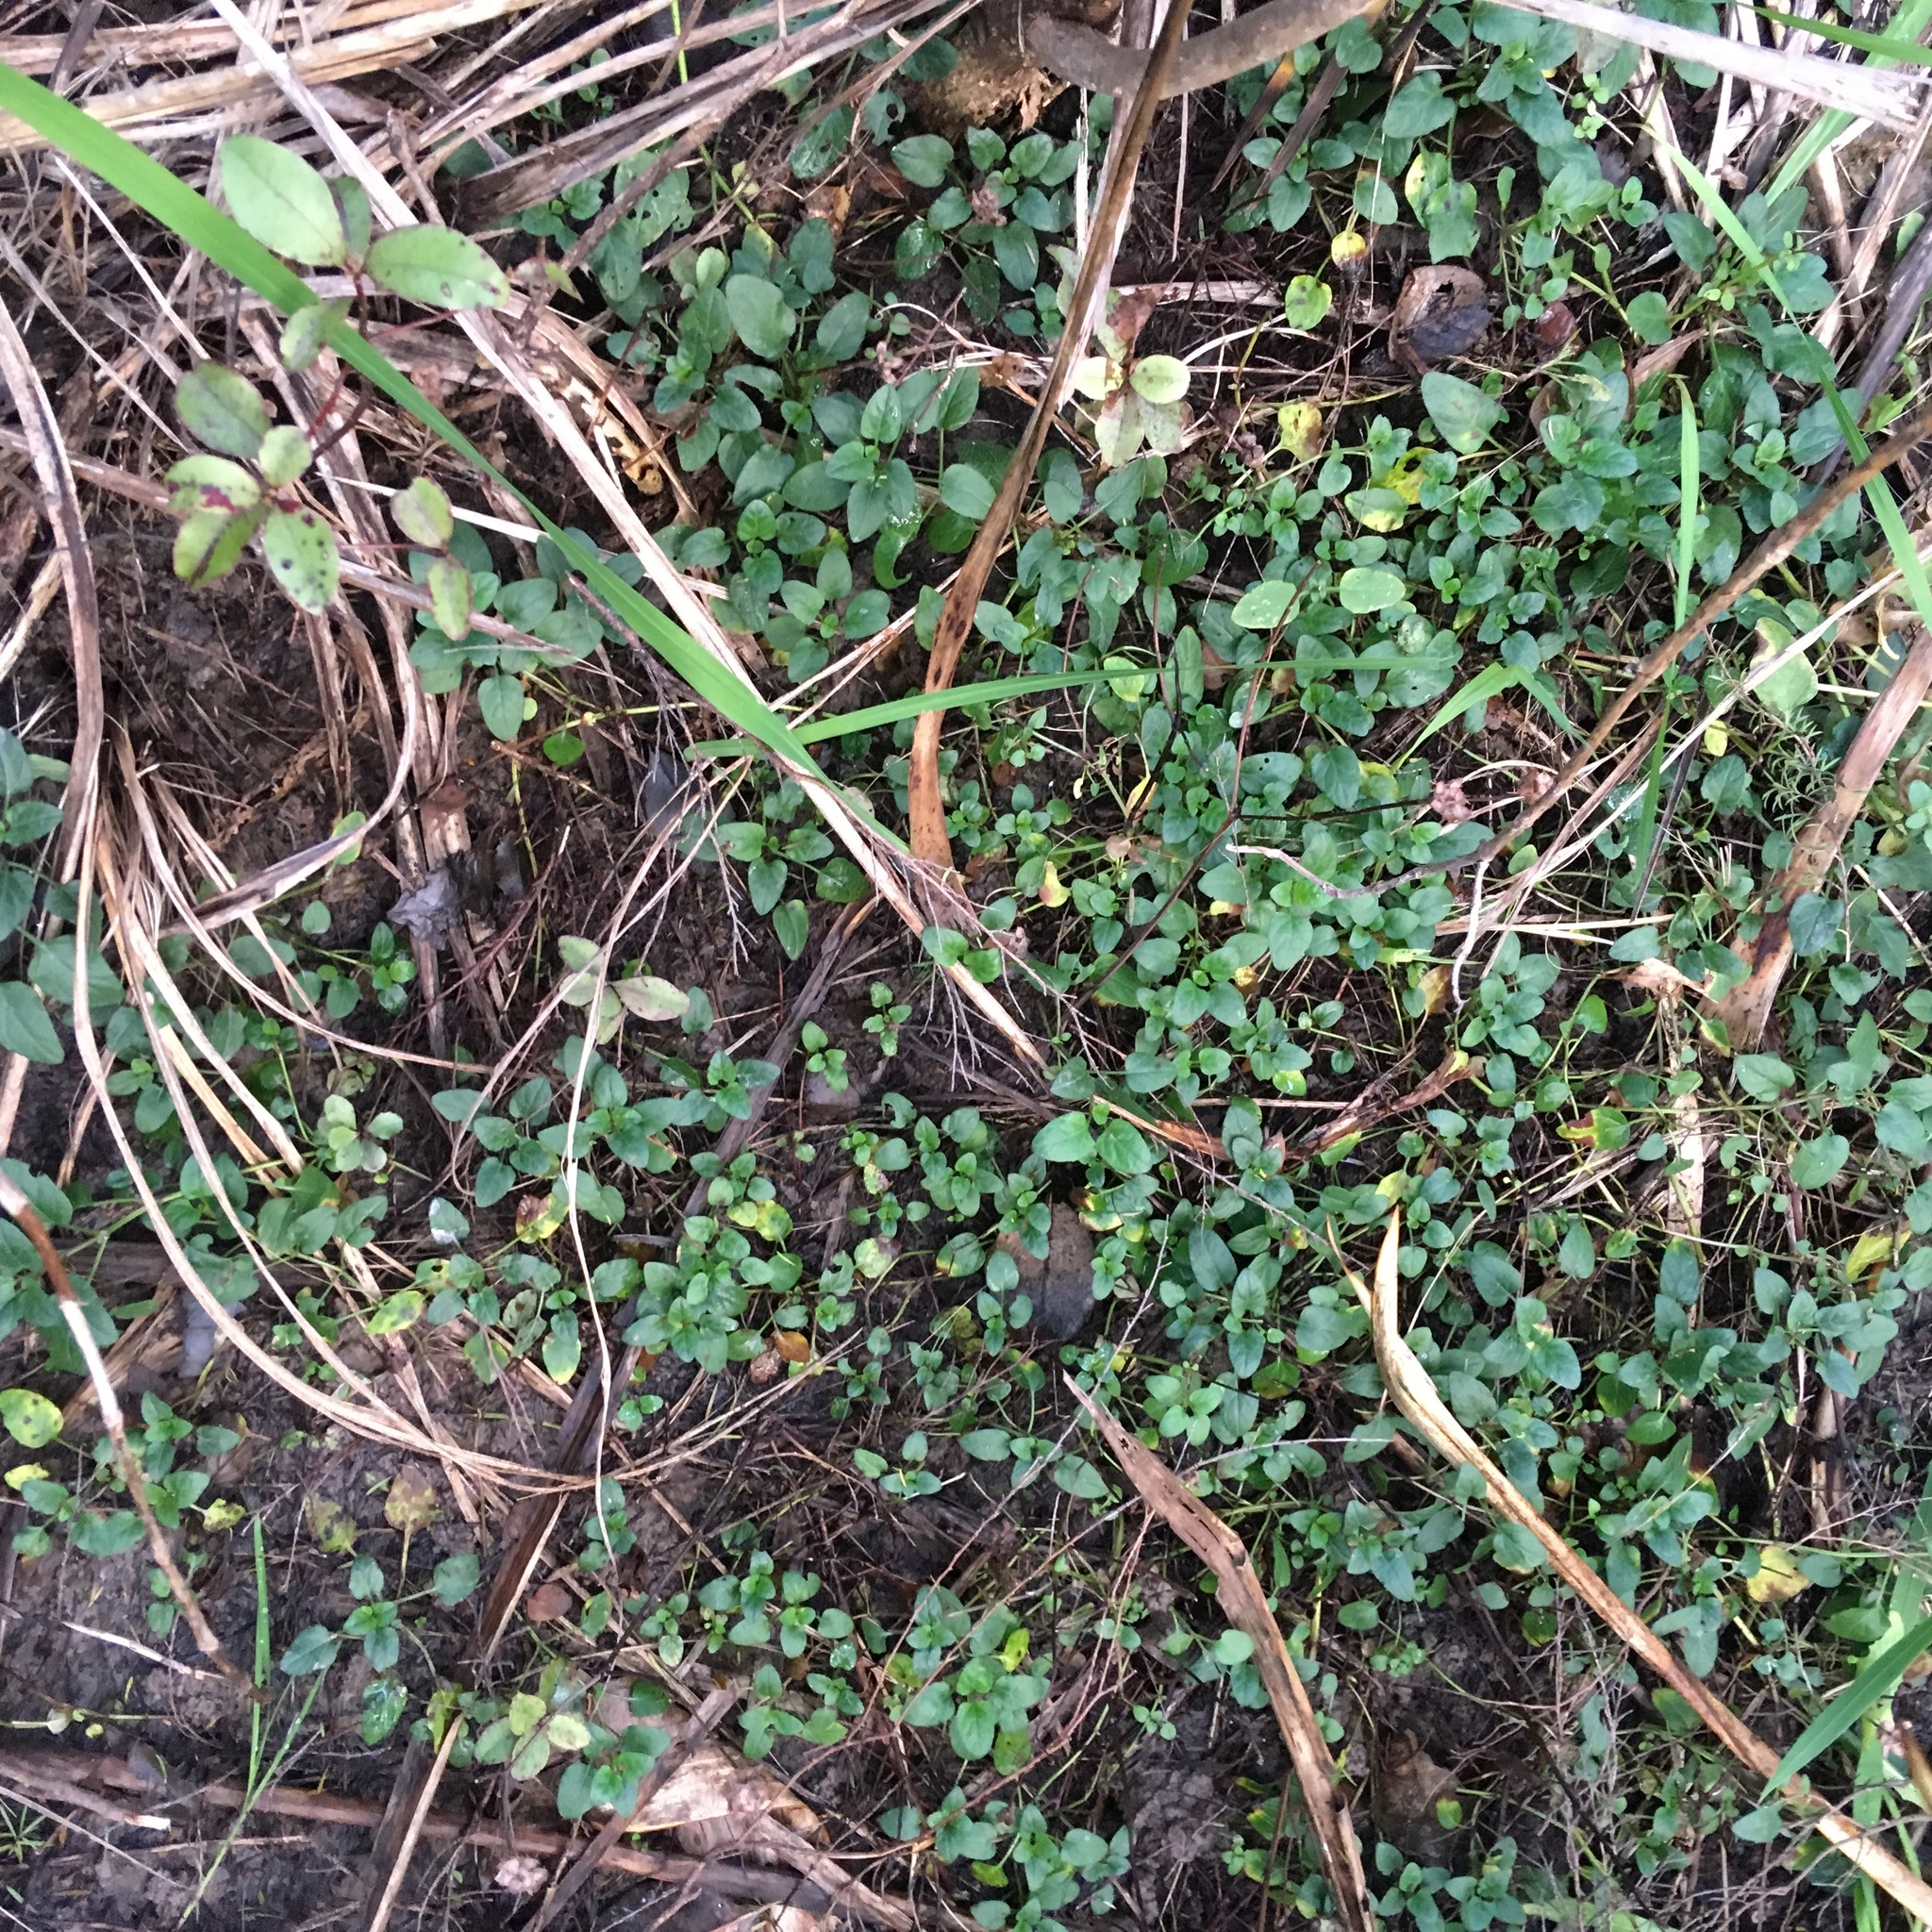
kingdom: Plantae
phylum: Tracheophyta
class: Magnoliopsida
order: Lamiales
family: Lamiaceae
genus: Prunella
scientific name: Prunella vulgaris
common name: Heal-all
